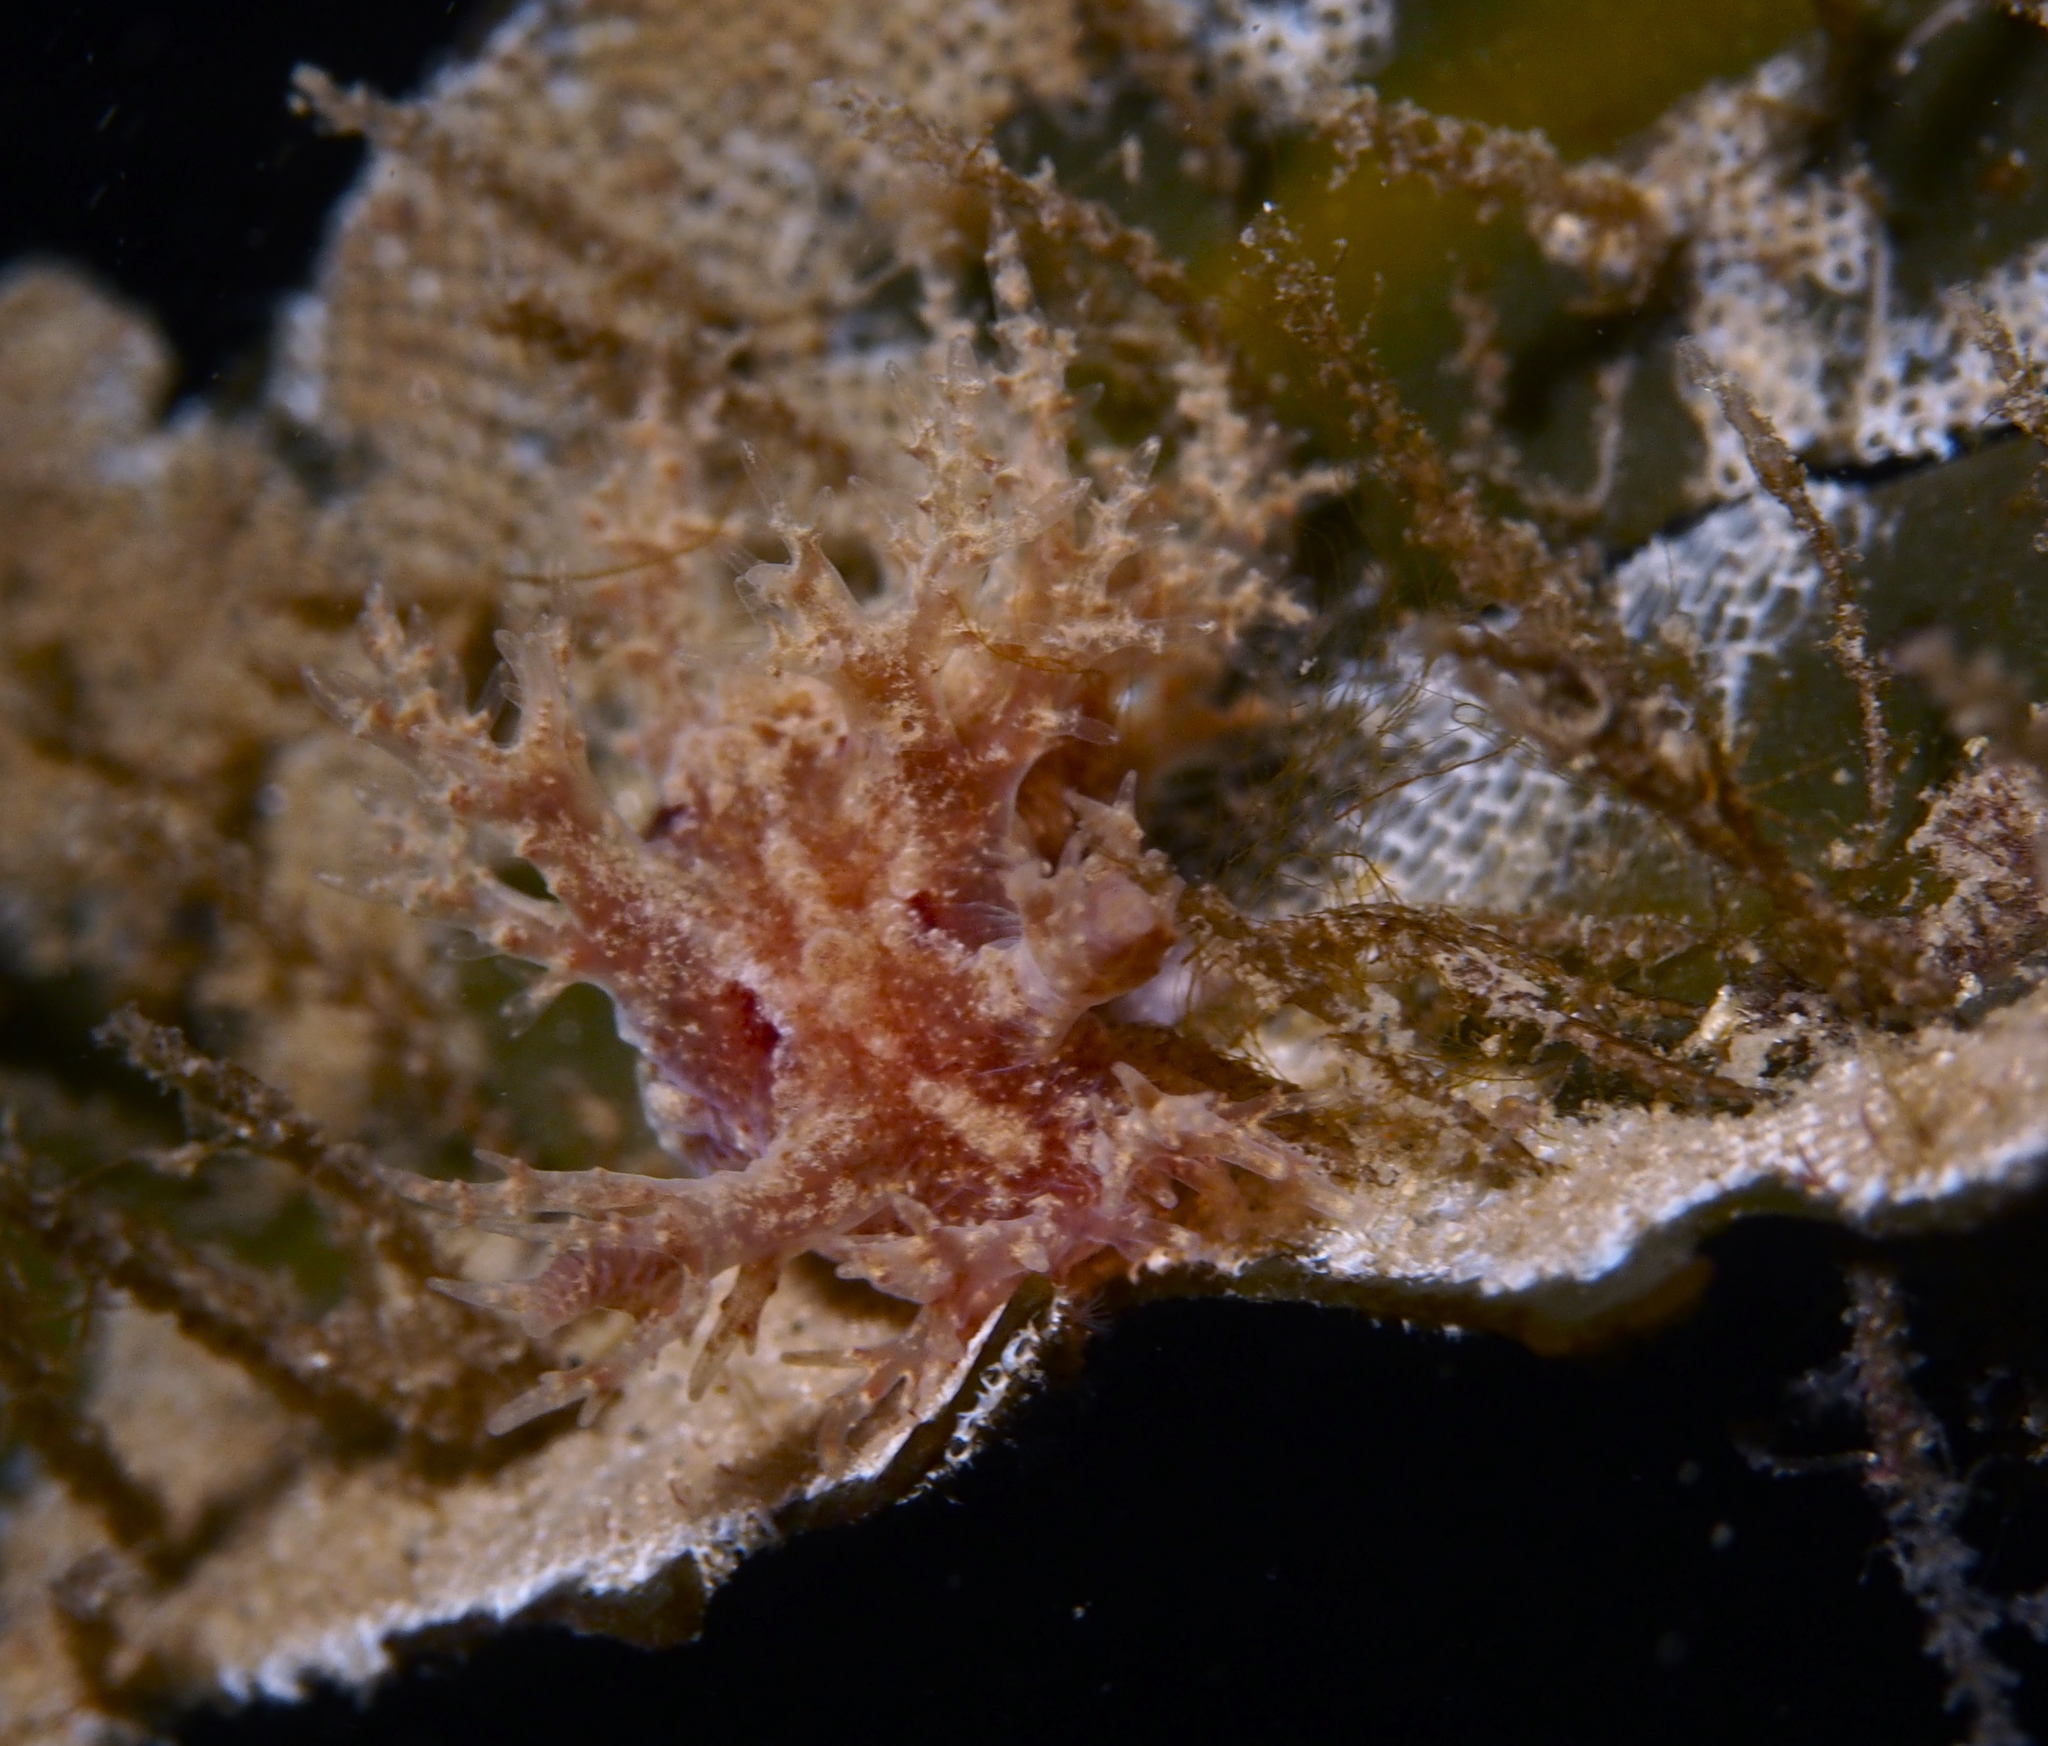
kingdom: Animalia
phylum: Mollusca
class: Gastropoda
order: Nudibranchia
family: Dendronotidae
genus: Dendronotus
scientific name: Dendronotus frondosus
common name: Bushy-backed nudibranch
